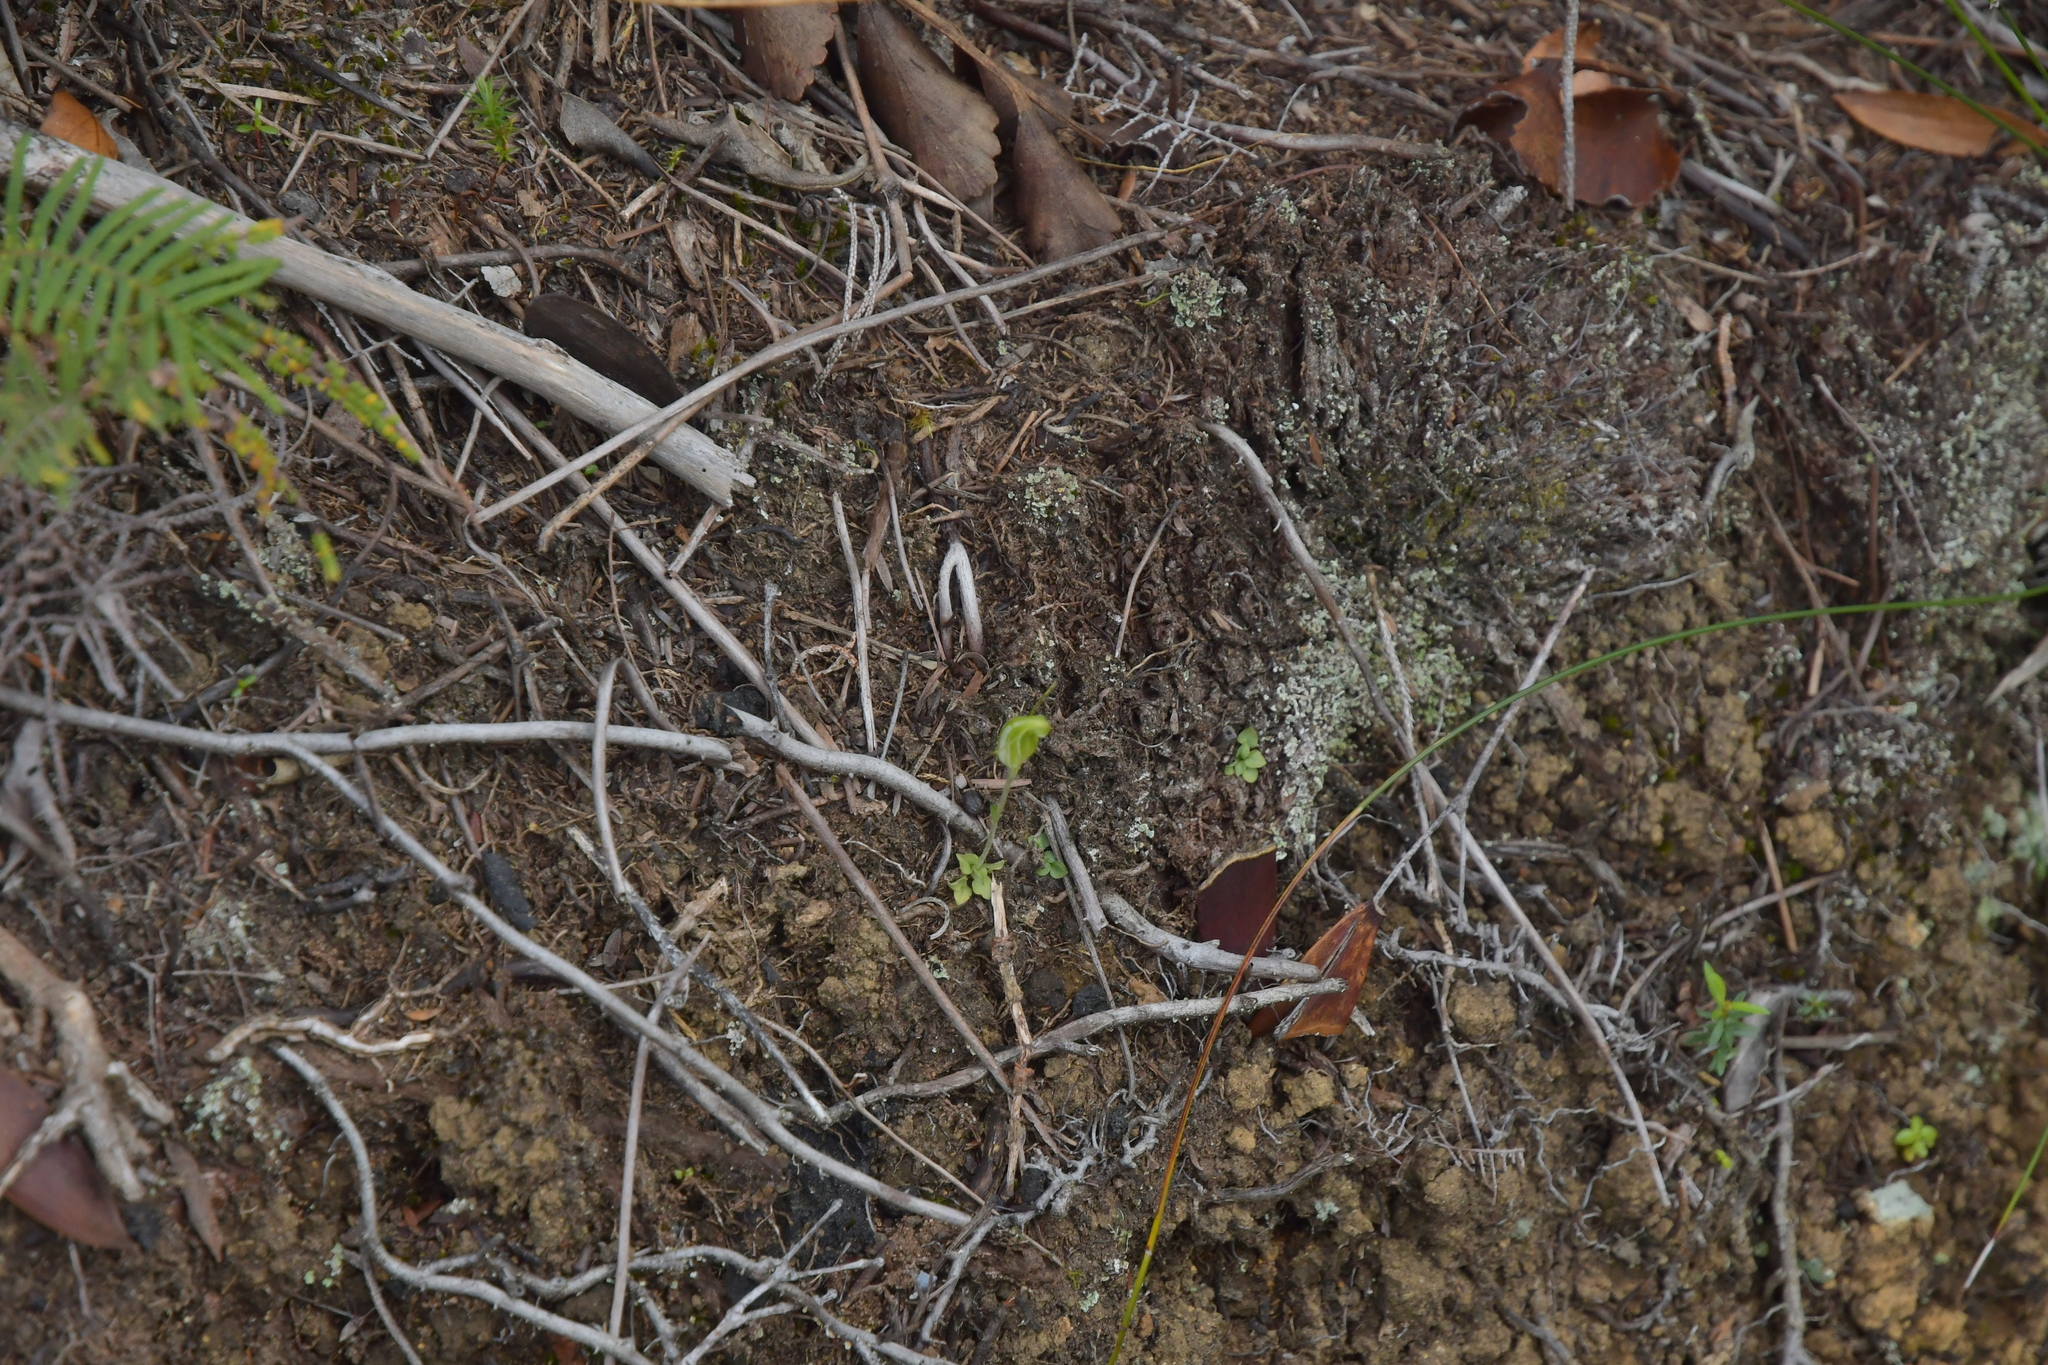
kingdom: Plantae
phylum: Tracheophyta
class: Liliopsida
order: Asparagales
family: Orchidaceae
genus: Pterostylis
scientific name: Pterostylis puberula
